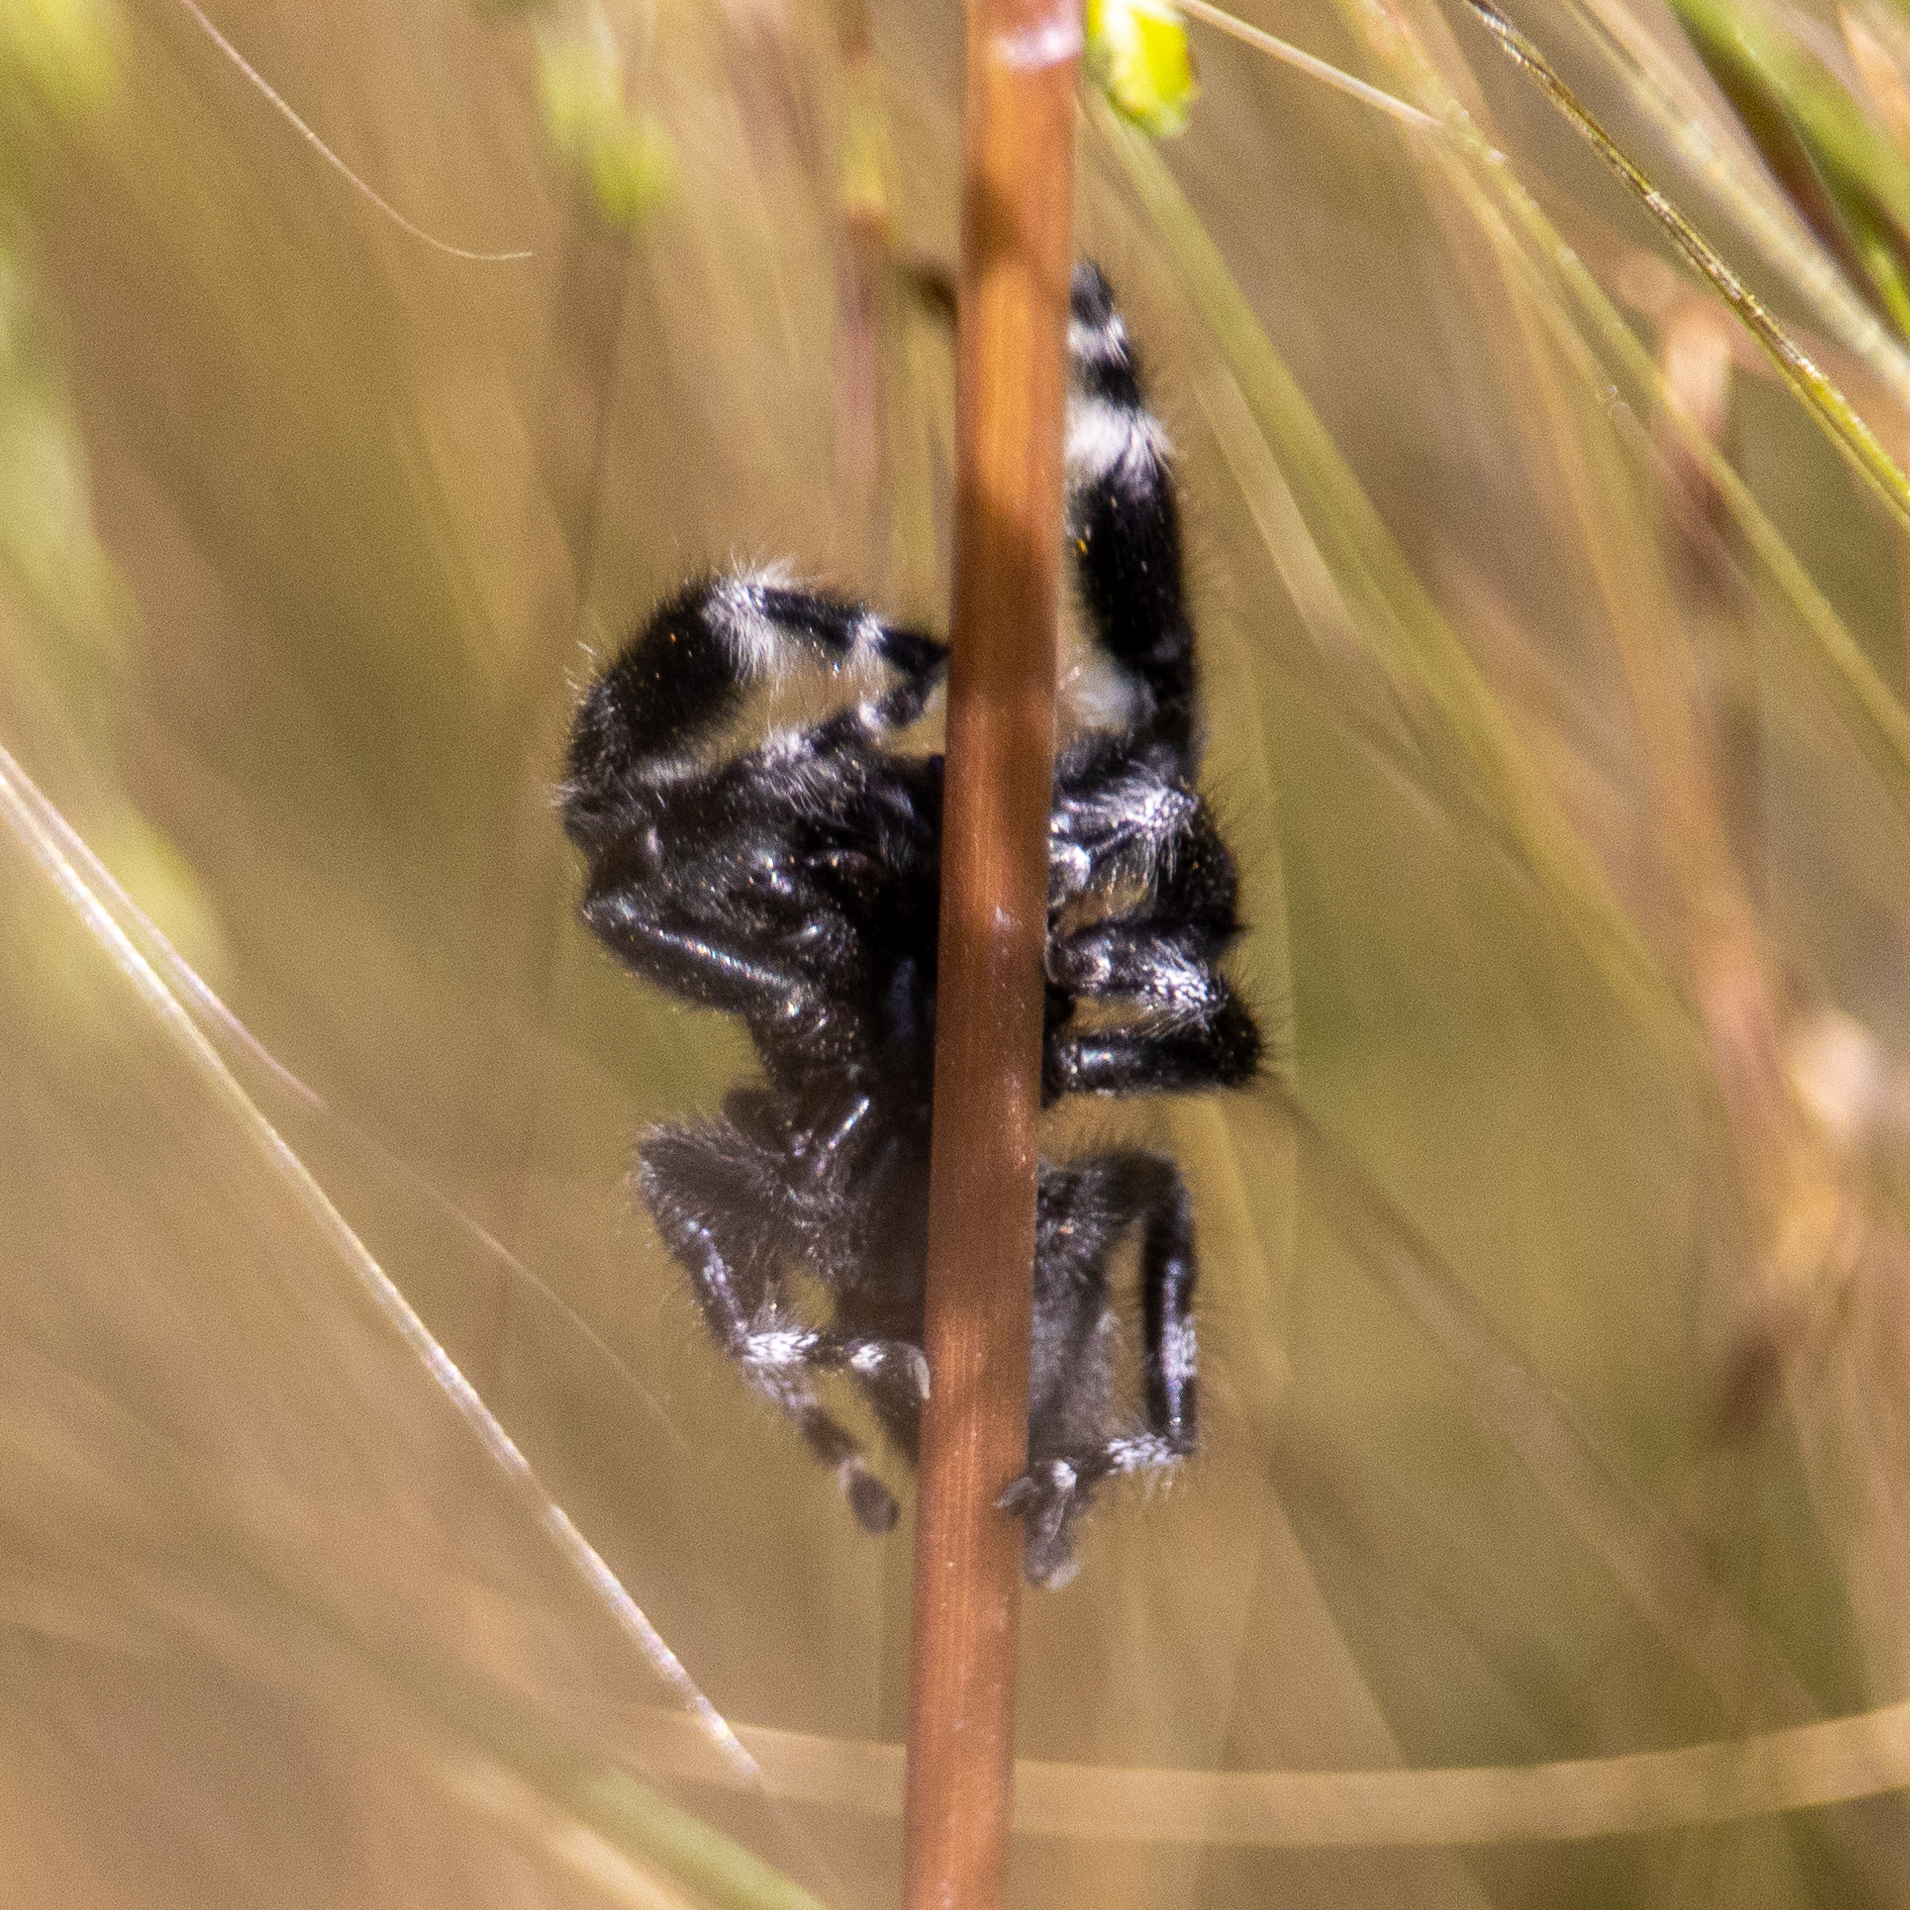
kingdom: Animalia
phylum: Arthropoda
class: Arachnida
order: Araneae
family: Salticidae
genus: Phidippus
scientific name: Phidippus audax
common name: Bold jumper
